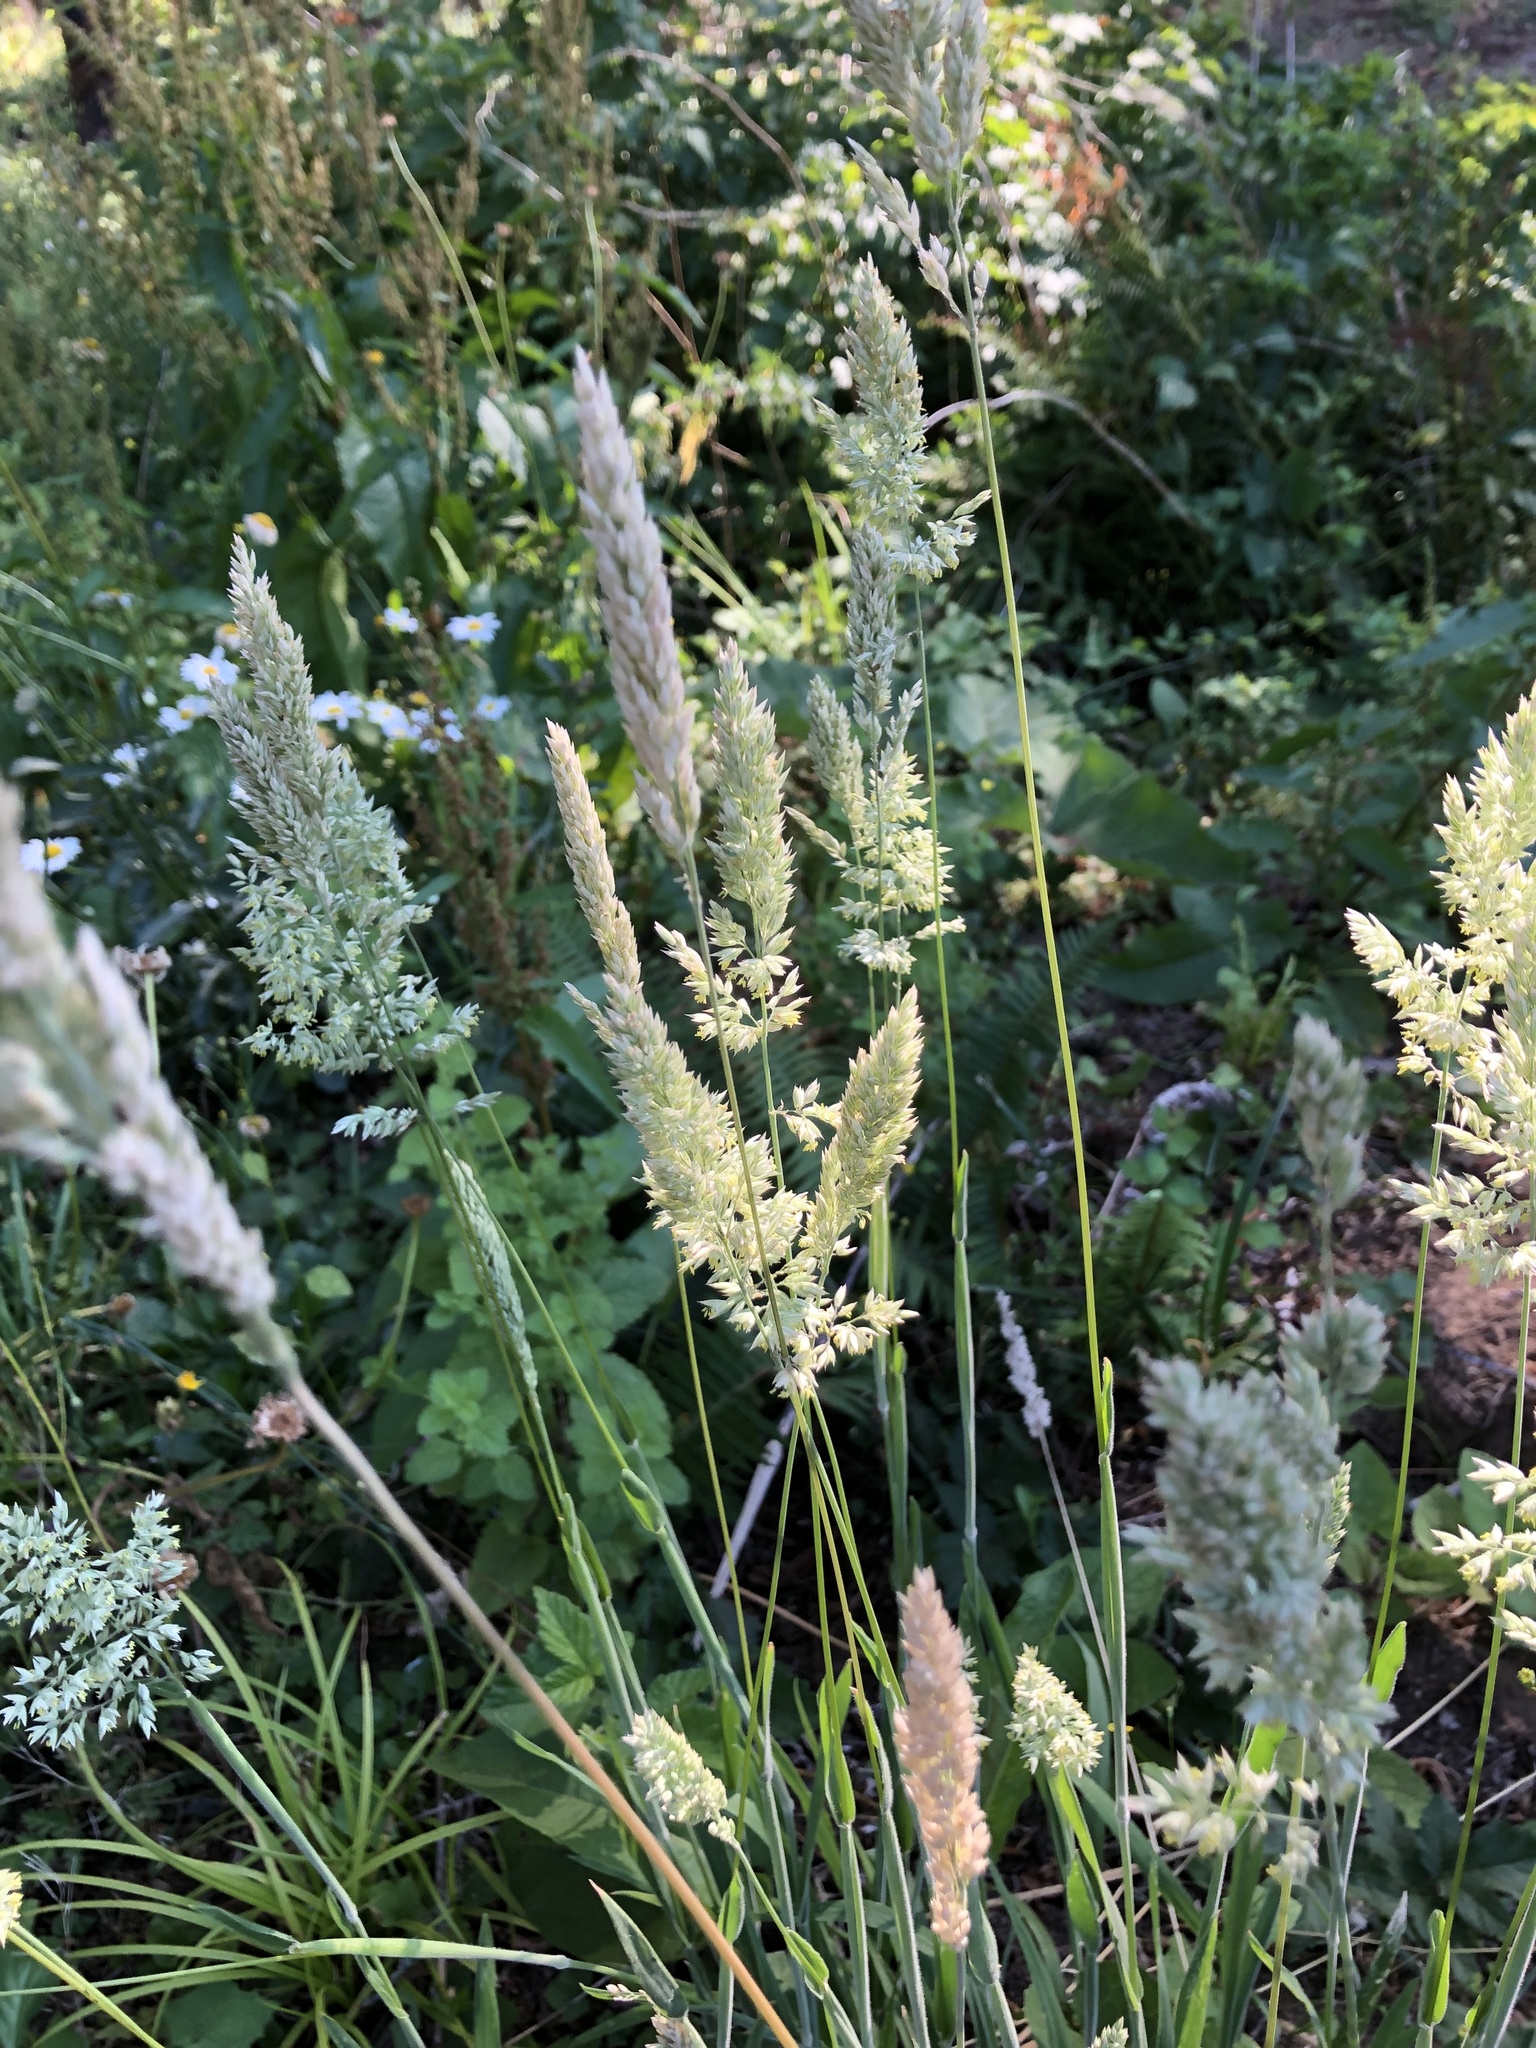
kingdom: Plantae
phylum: Tracheophyta
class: Liliopsida
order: Poales
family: Poaceae
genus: Holcus
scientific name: Holcus lanatus
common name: Yorkshire-fog
